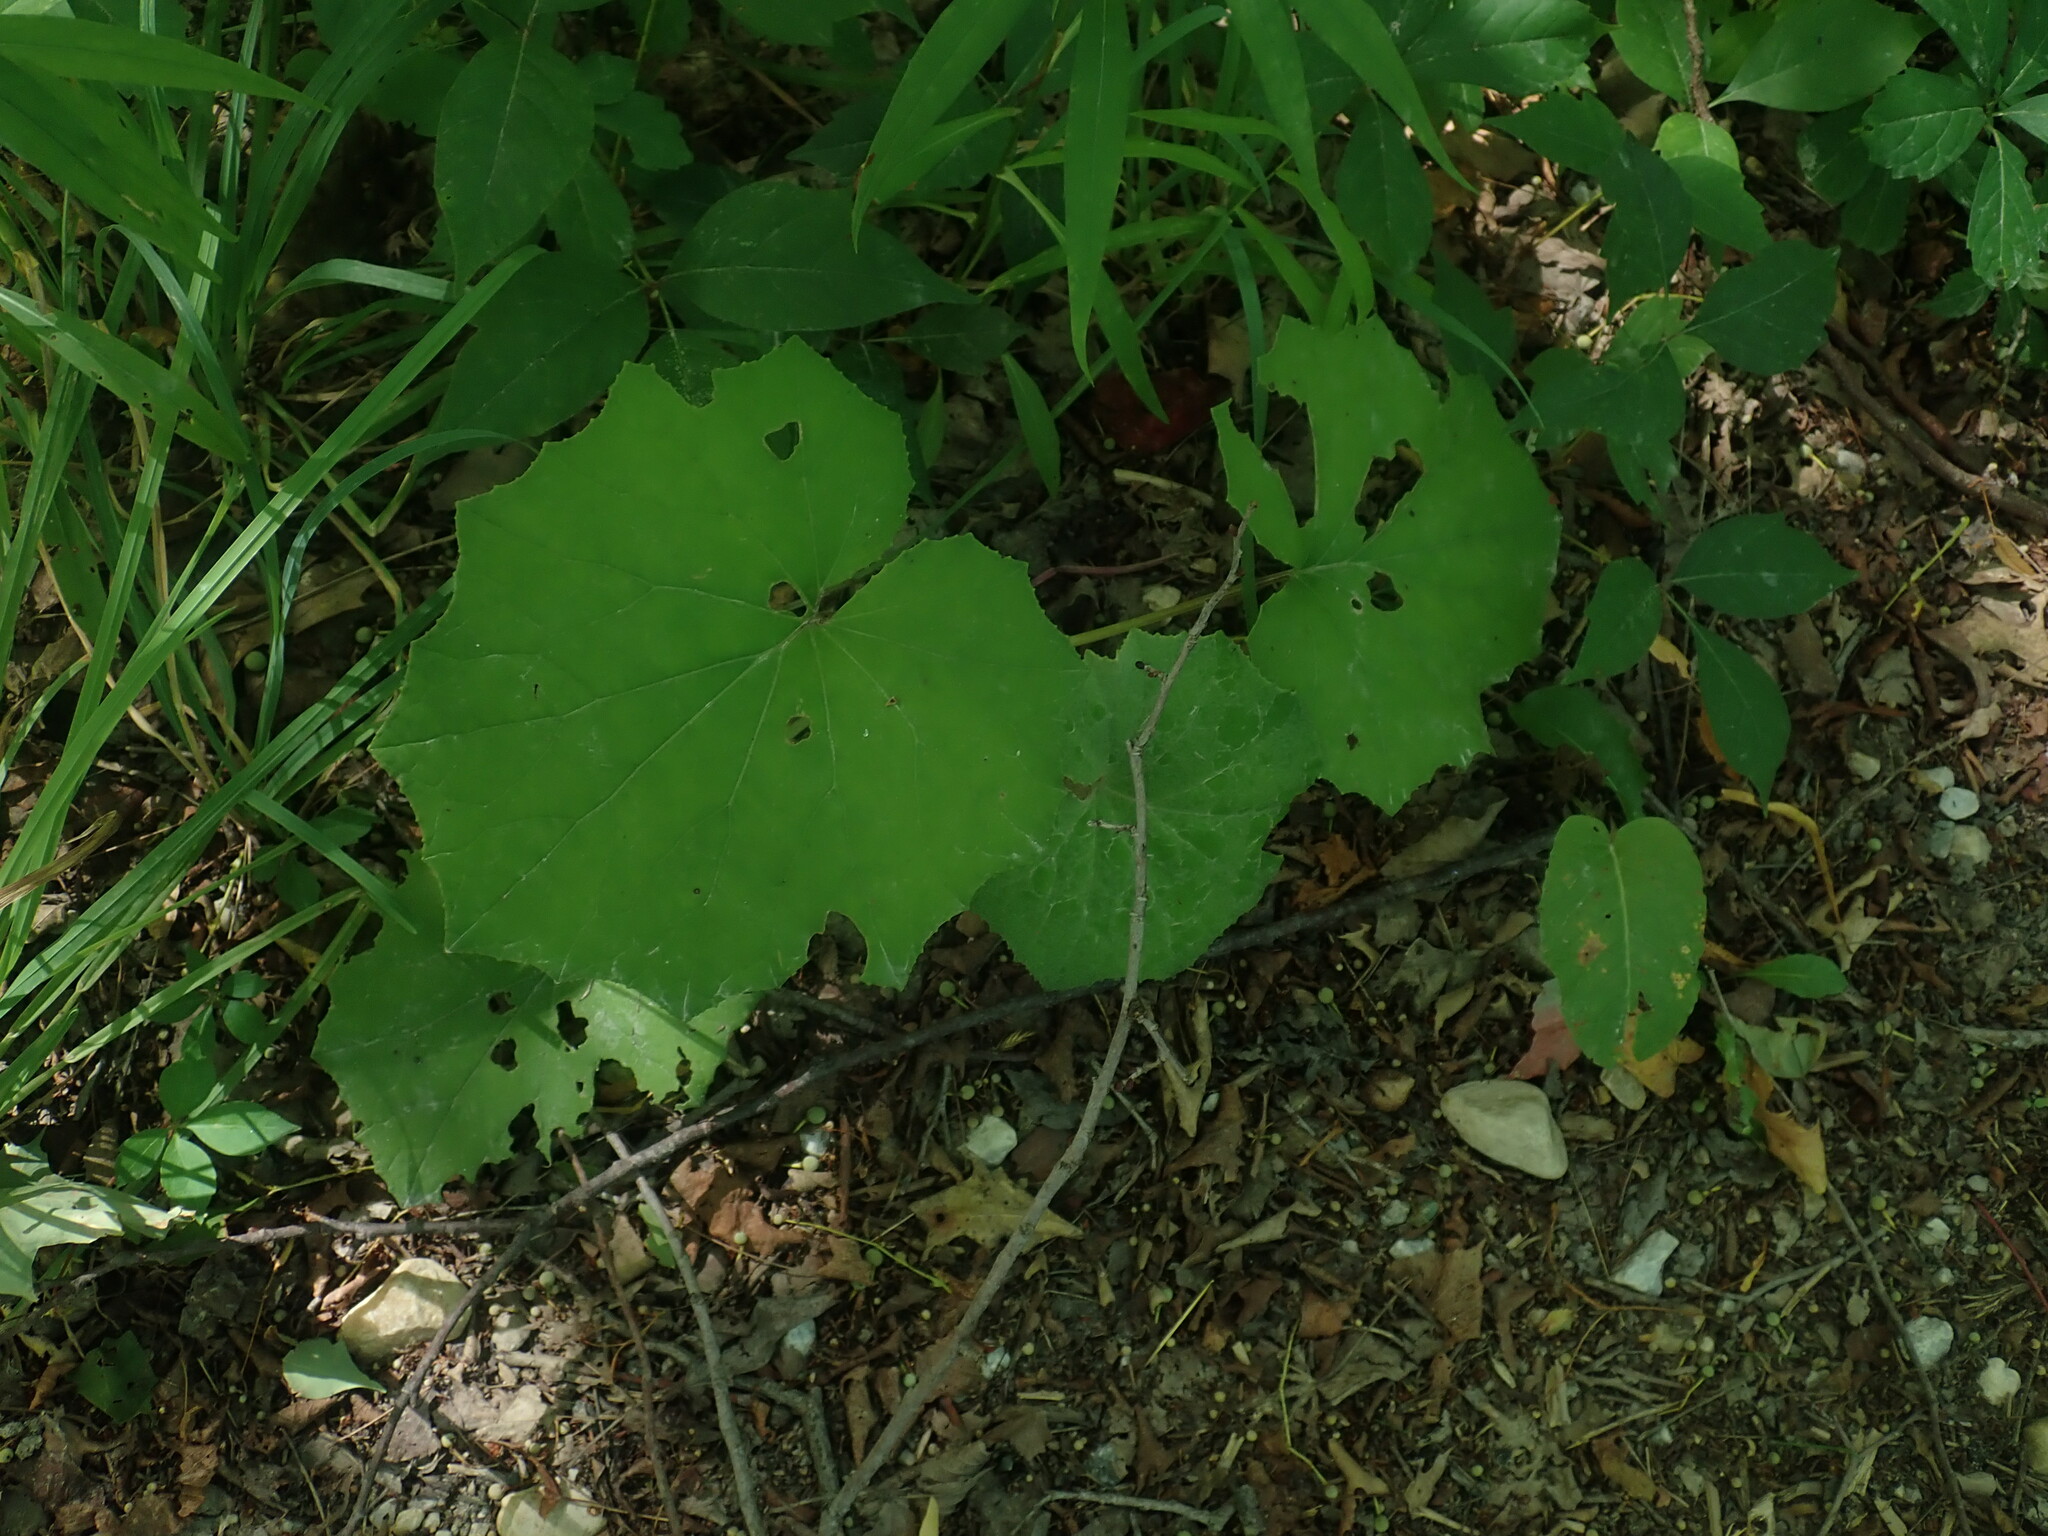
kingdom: Plantae
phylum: Tracheophyta
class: Magnoliopsida
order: Asterales
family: Asteraceae
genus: Tussilago
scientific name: Tussilago farfara
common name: Coltsfoot
